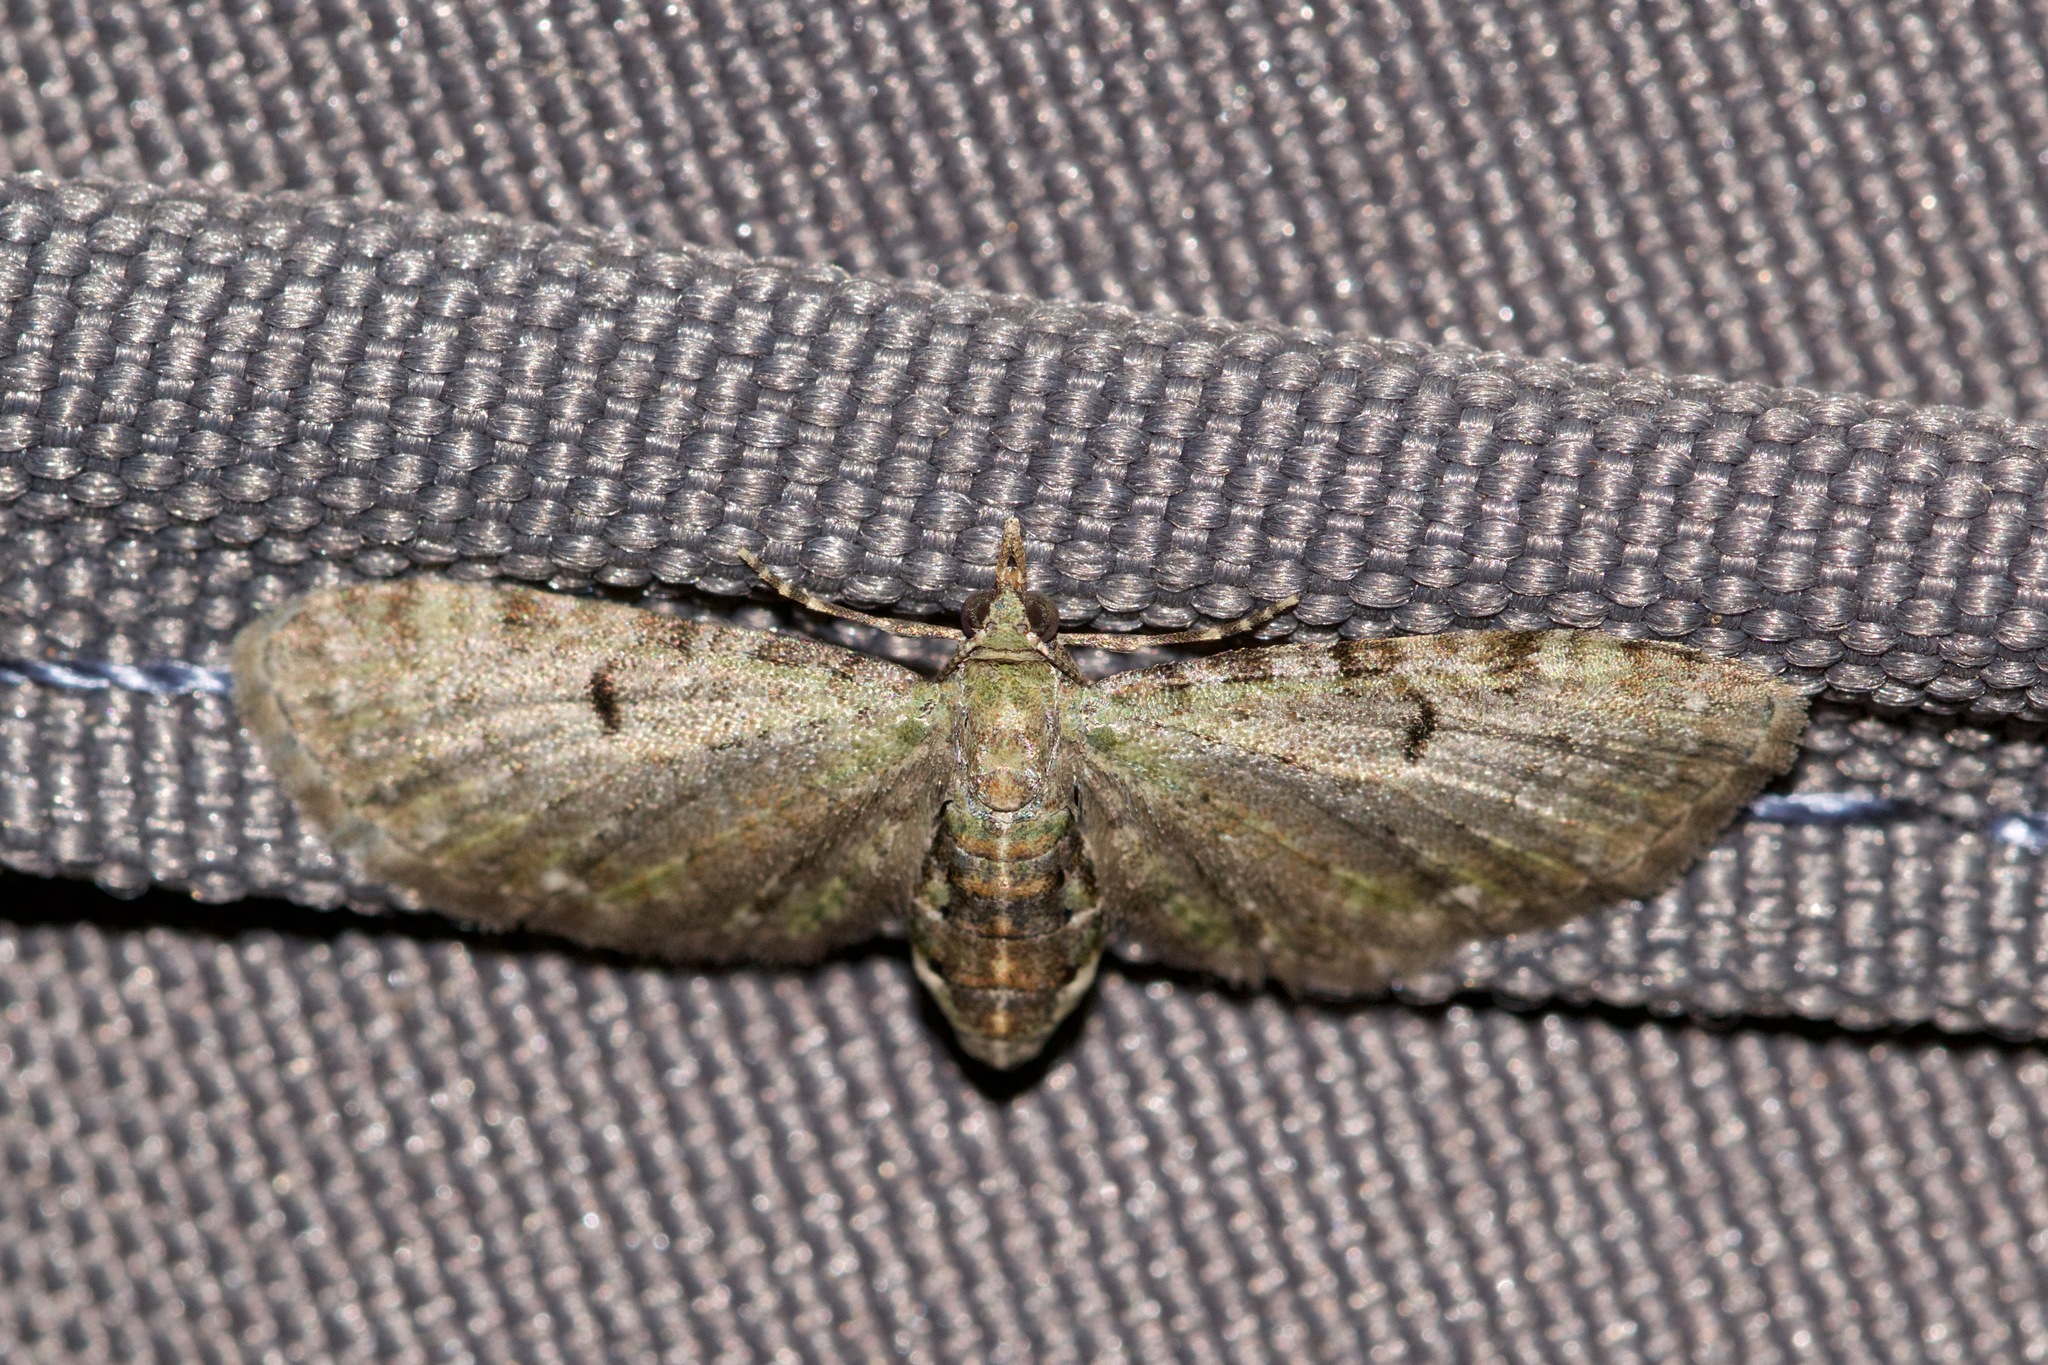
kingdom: Animalia
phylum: Arthropoda
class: Insecta
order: Lepidoptera
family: Geometridae
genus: Eupithecia
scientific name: Eupithecia miserulata
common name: Common eupithecia
